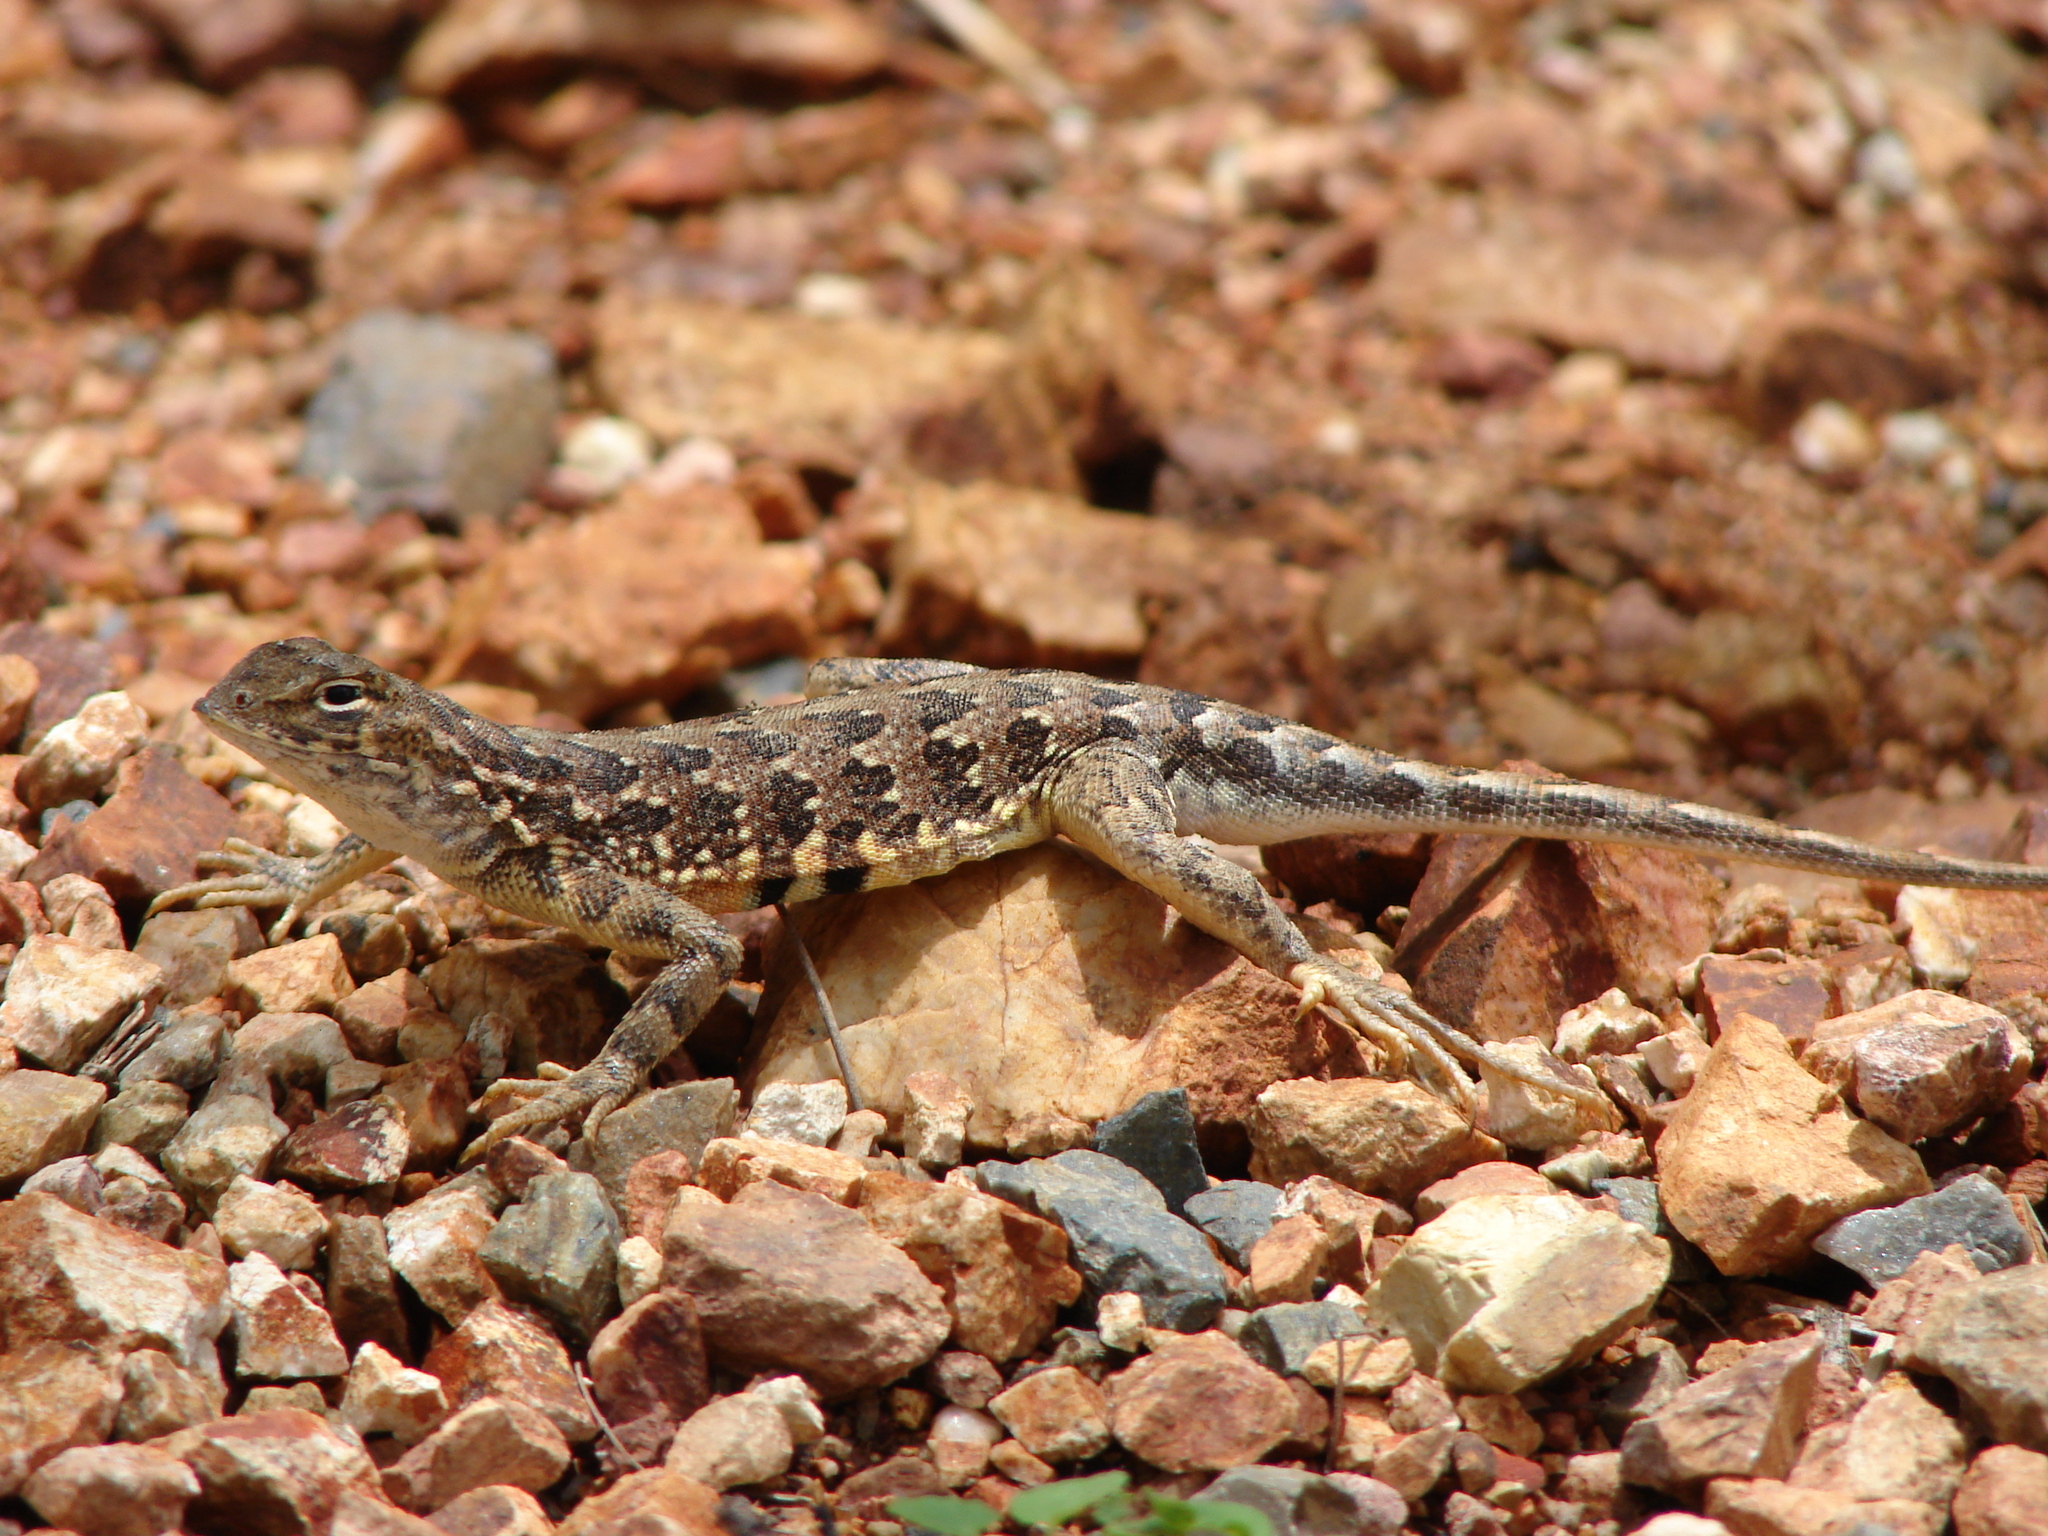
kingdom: Animalia
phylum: Chordata
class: Squamata
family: Phrynosomatidae
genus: Holbrookia
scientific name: Holbrookia elegans
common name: Elegant earless lizard
